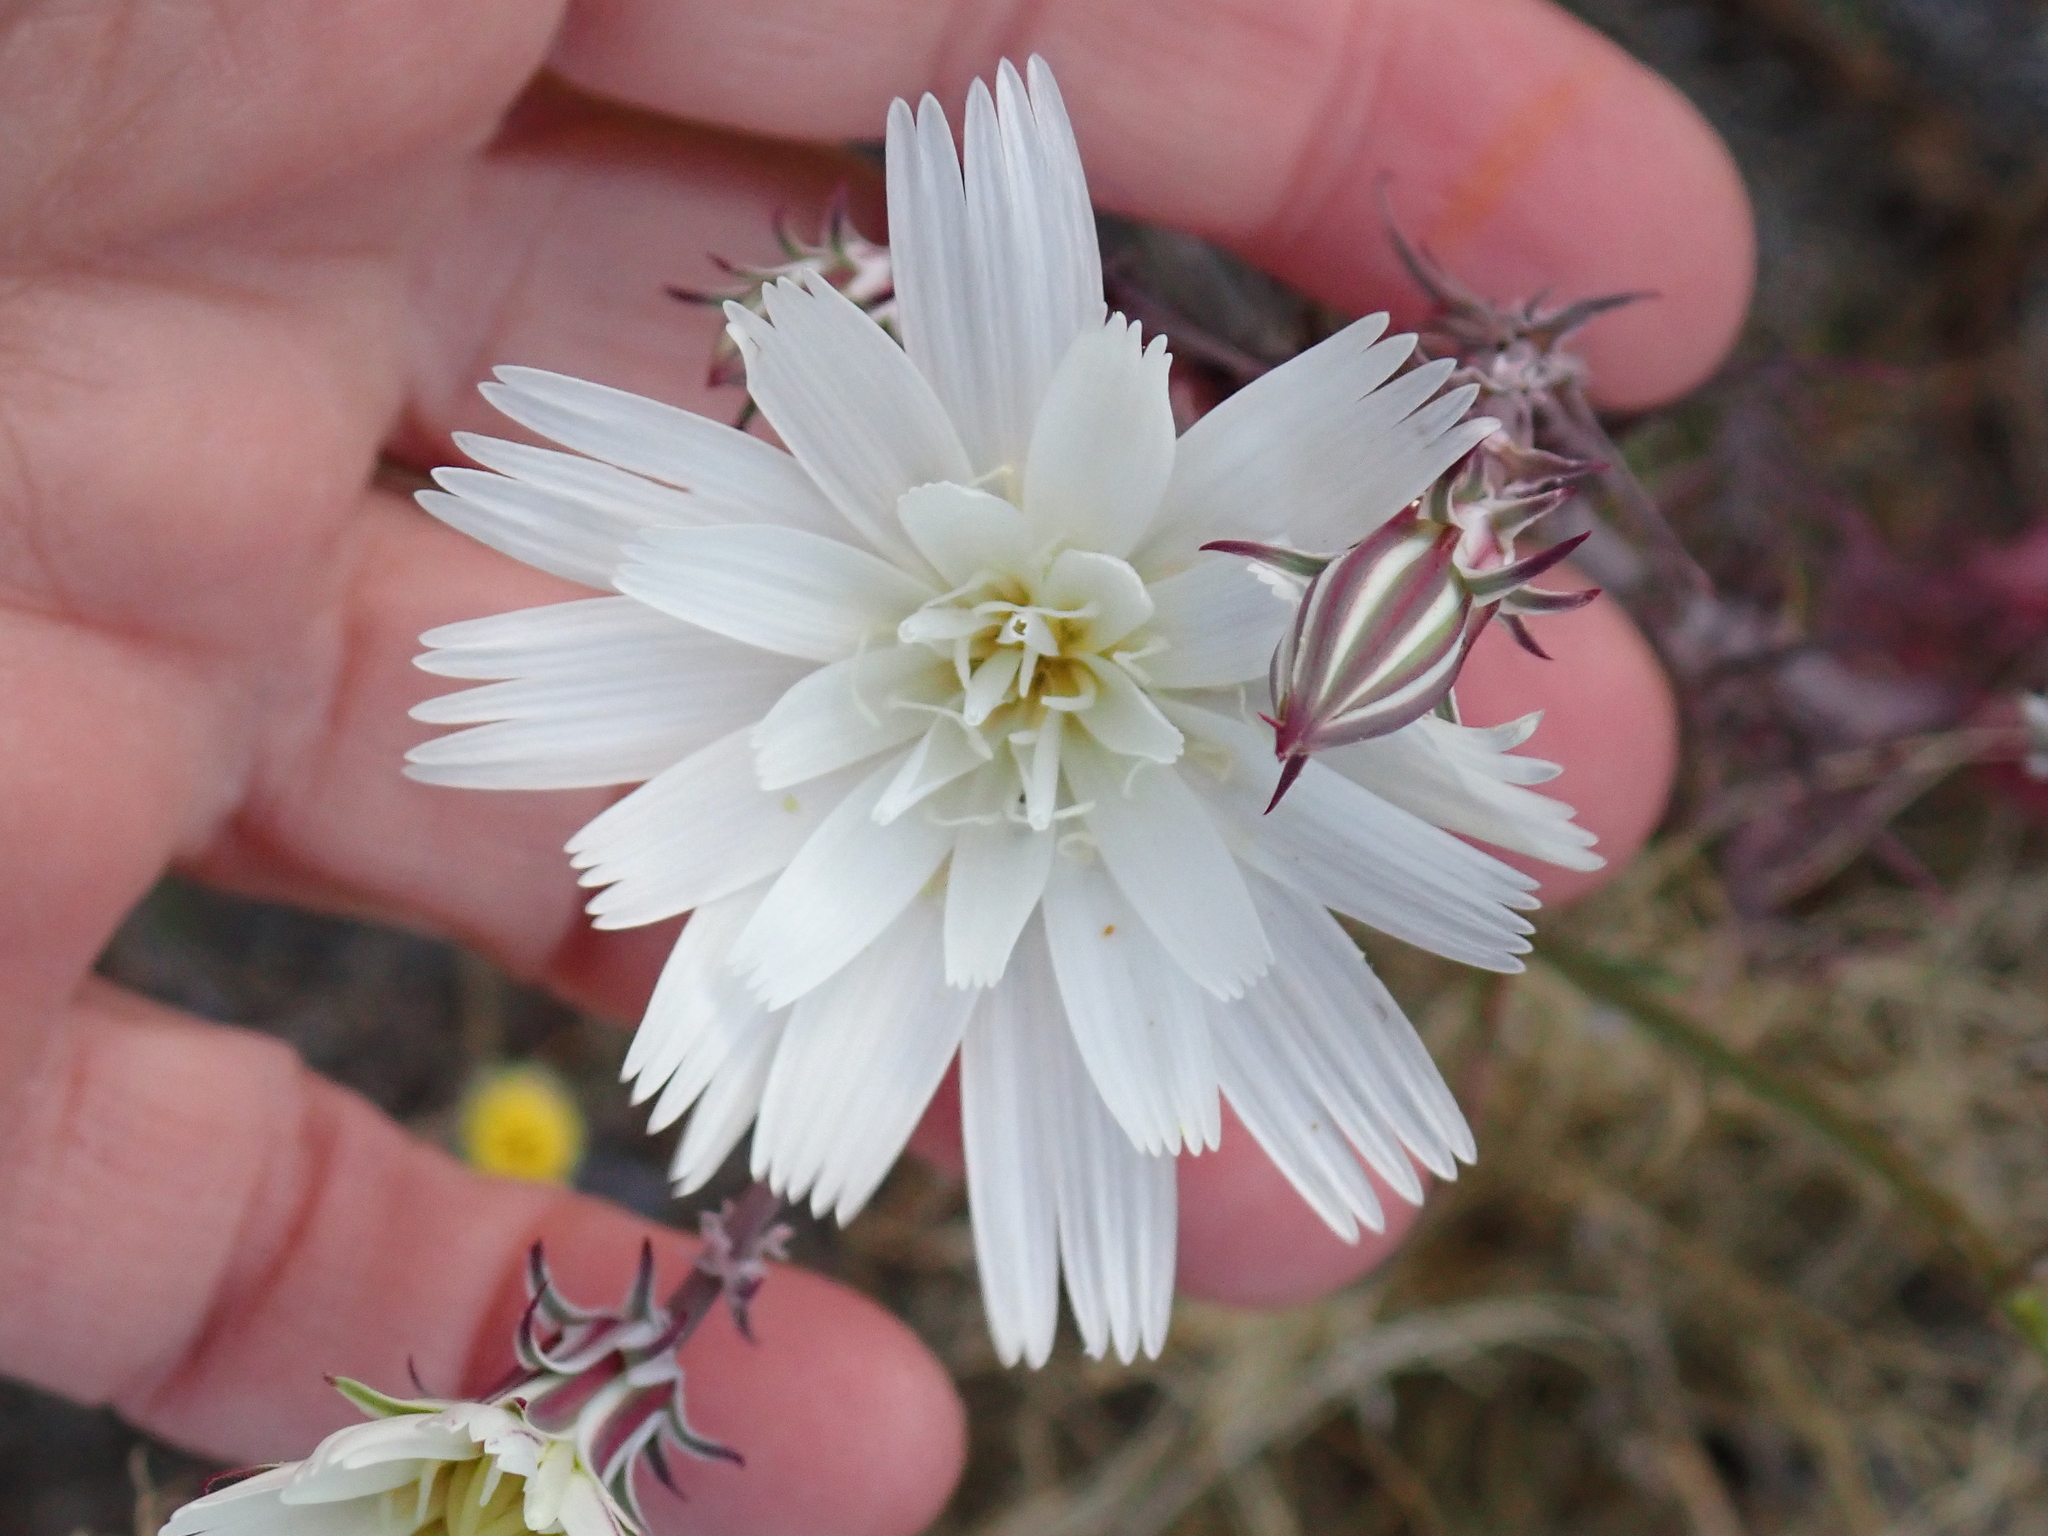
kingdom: Plantae
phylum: Tracheophyta
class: Magnoliopsida
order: Asterales
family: Asteraceae
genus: Rafinesquia
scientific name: Rafinesquia neomexicana
